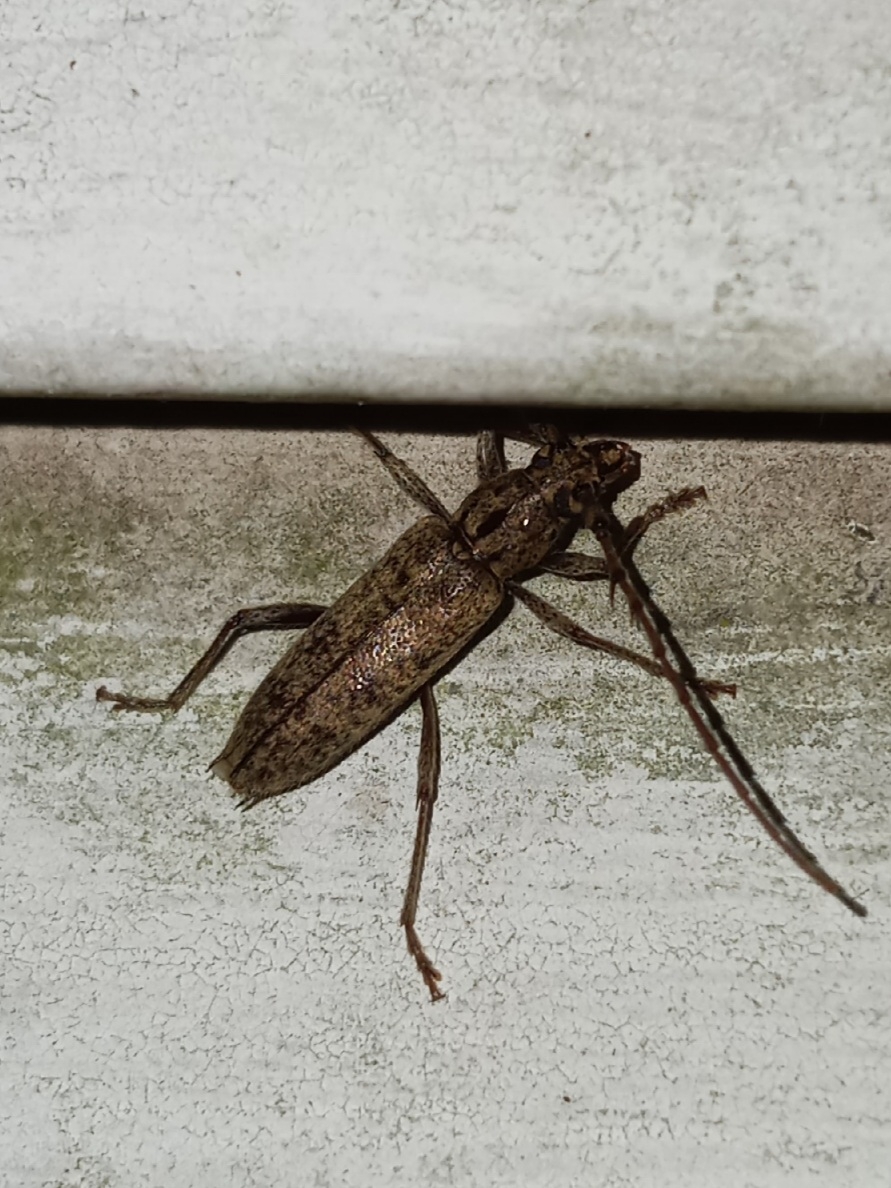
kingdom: Animalia
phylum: Arthropoda
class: Insecta
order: Coleoptera
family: Cerambycidae
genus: Elaphidion
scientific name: Elaphidion mucronatum
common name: Spined oak borer
